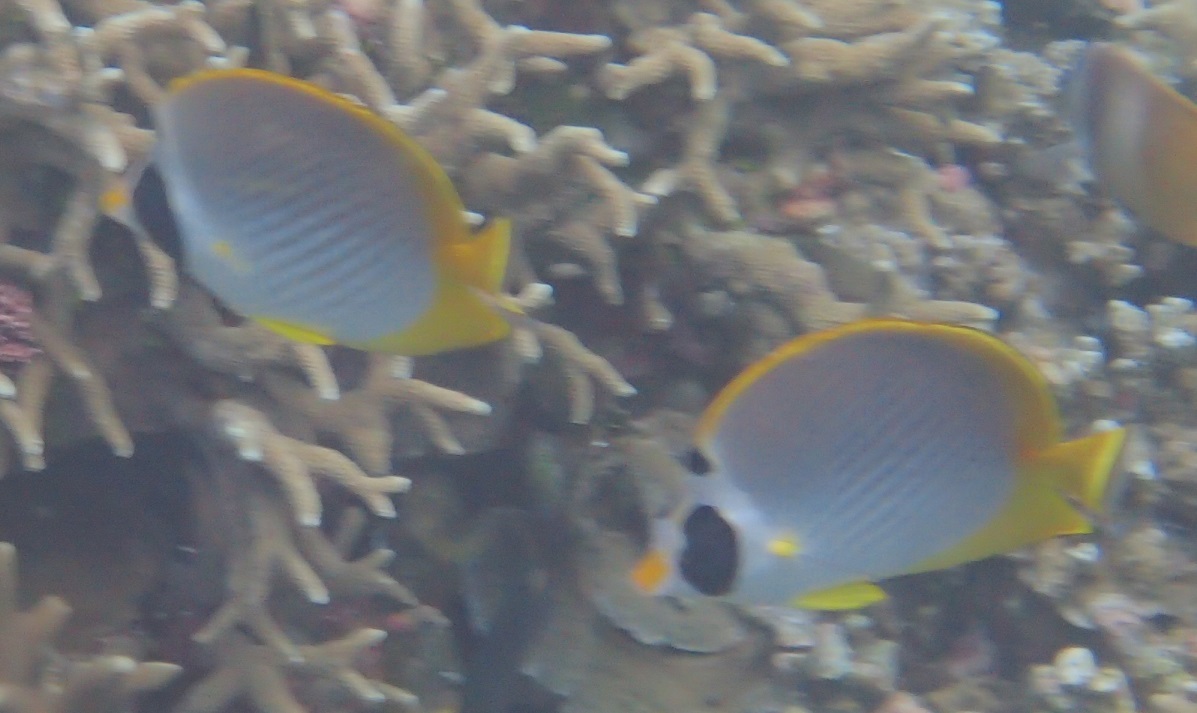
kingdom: Animalia
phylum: Chordata
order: Perciformes
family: Chaetodontidae
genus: Chaetodon
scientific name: Chaetodon adiergastos
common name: Eye-patch butterflyfish
